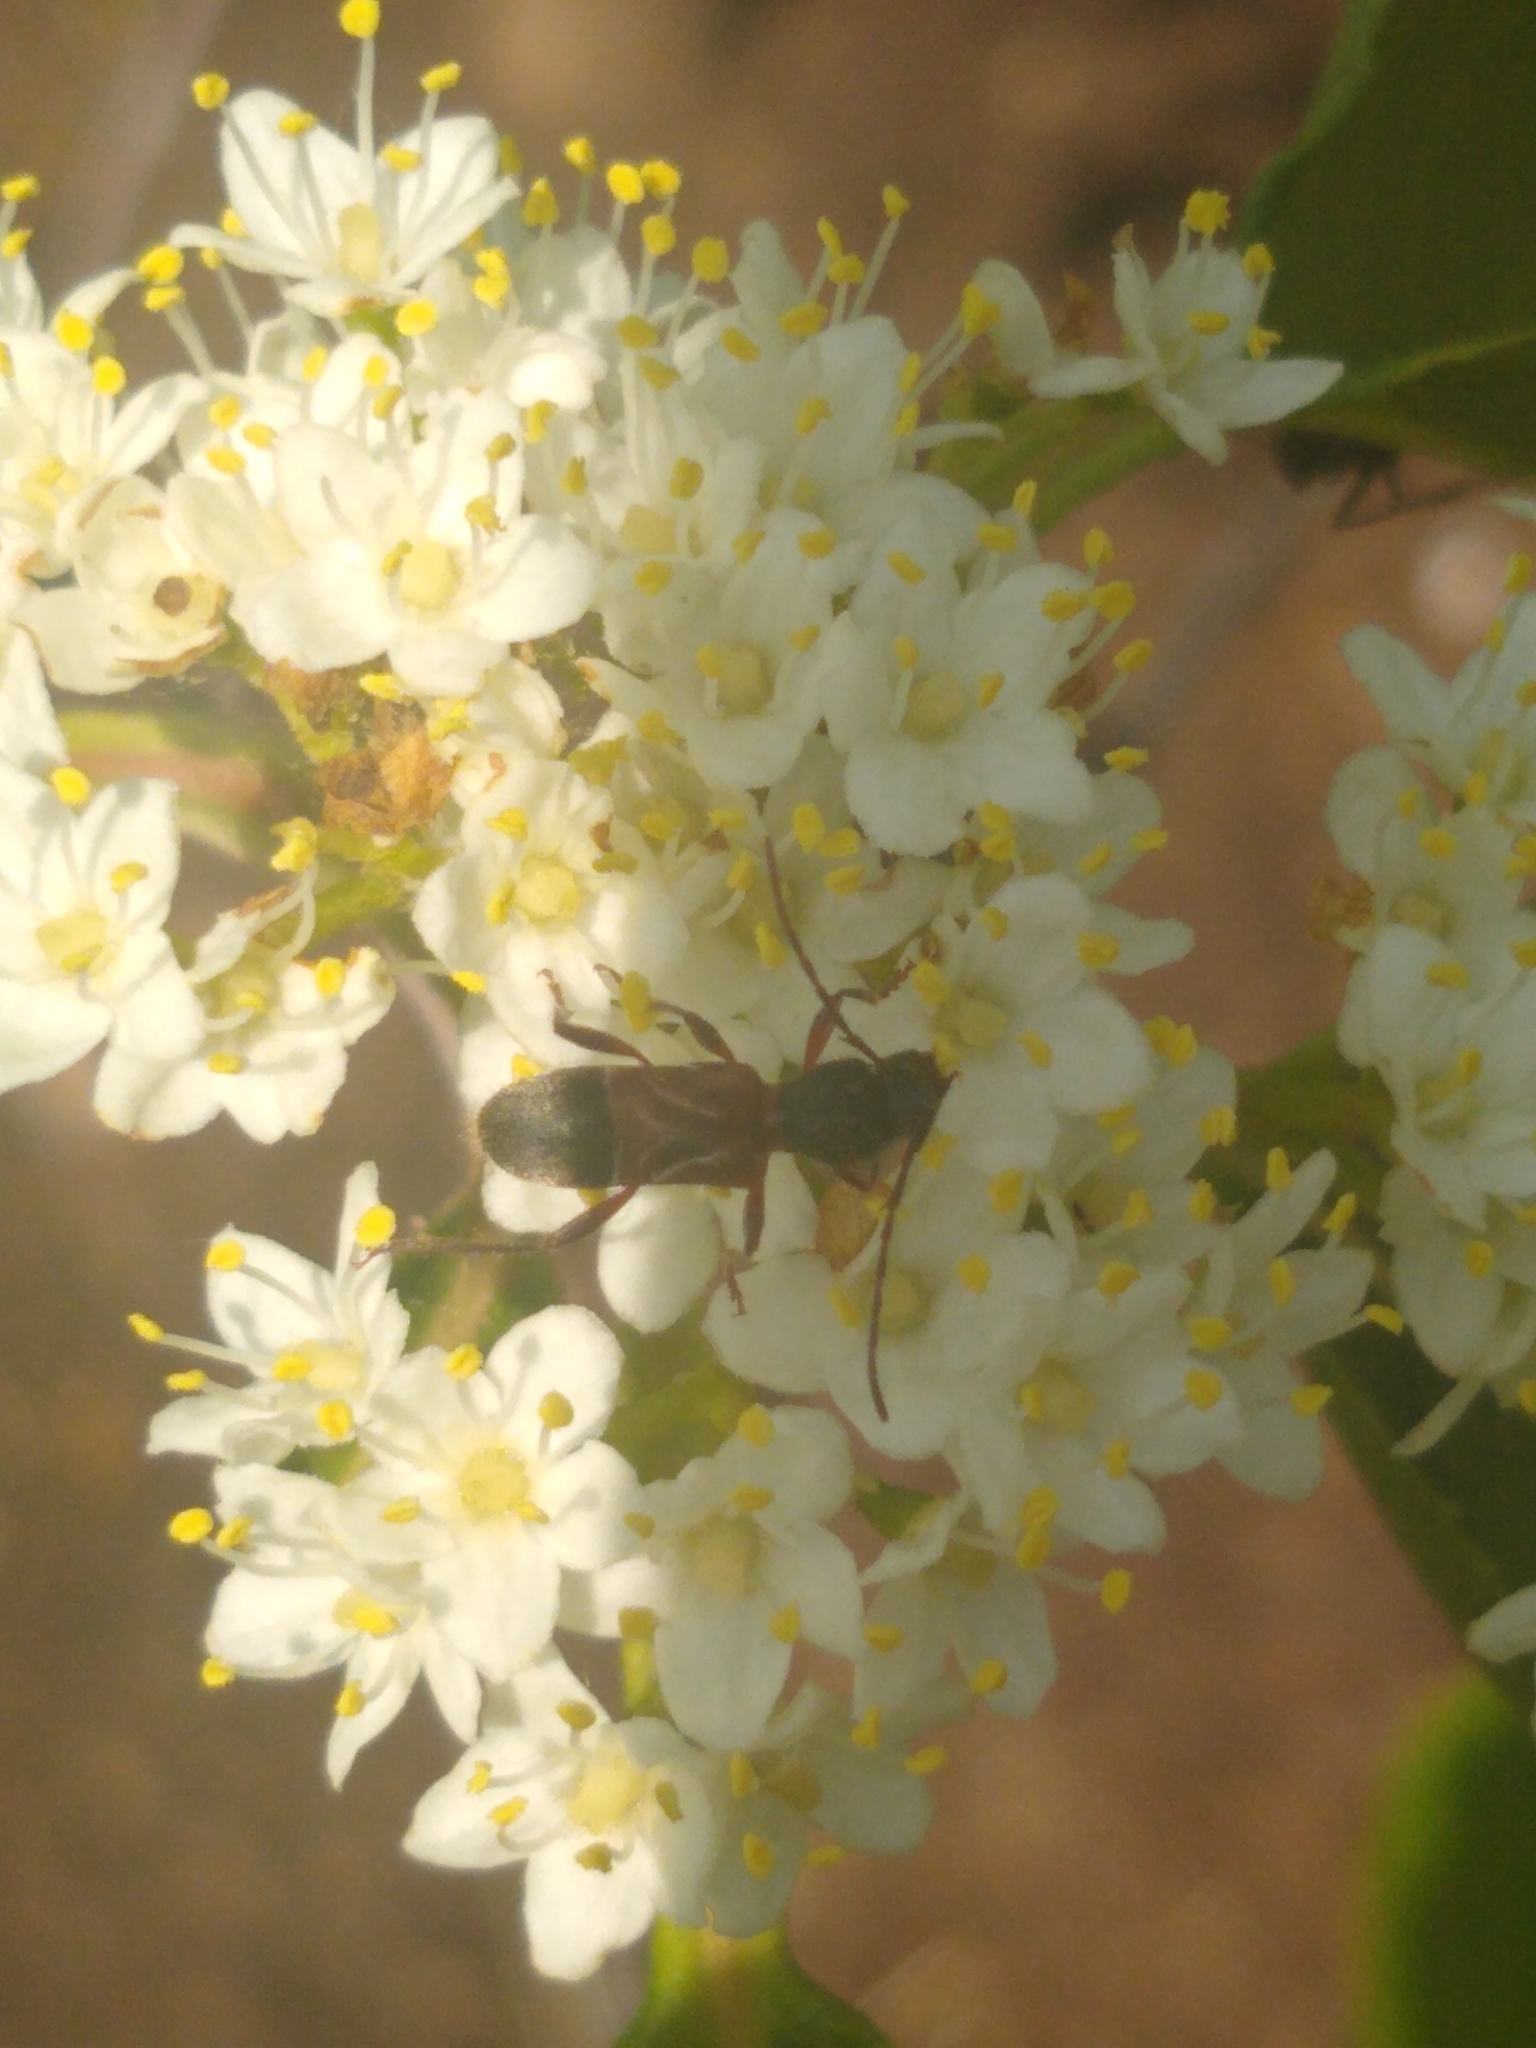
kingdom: Animalia
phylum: Arthropoda
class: Insecta
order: Coleoptera
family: Cerambycidae
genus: Cyrtophorus
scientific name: Cyrtophorus verrucosus
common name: Ant-like longhorn beetle
